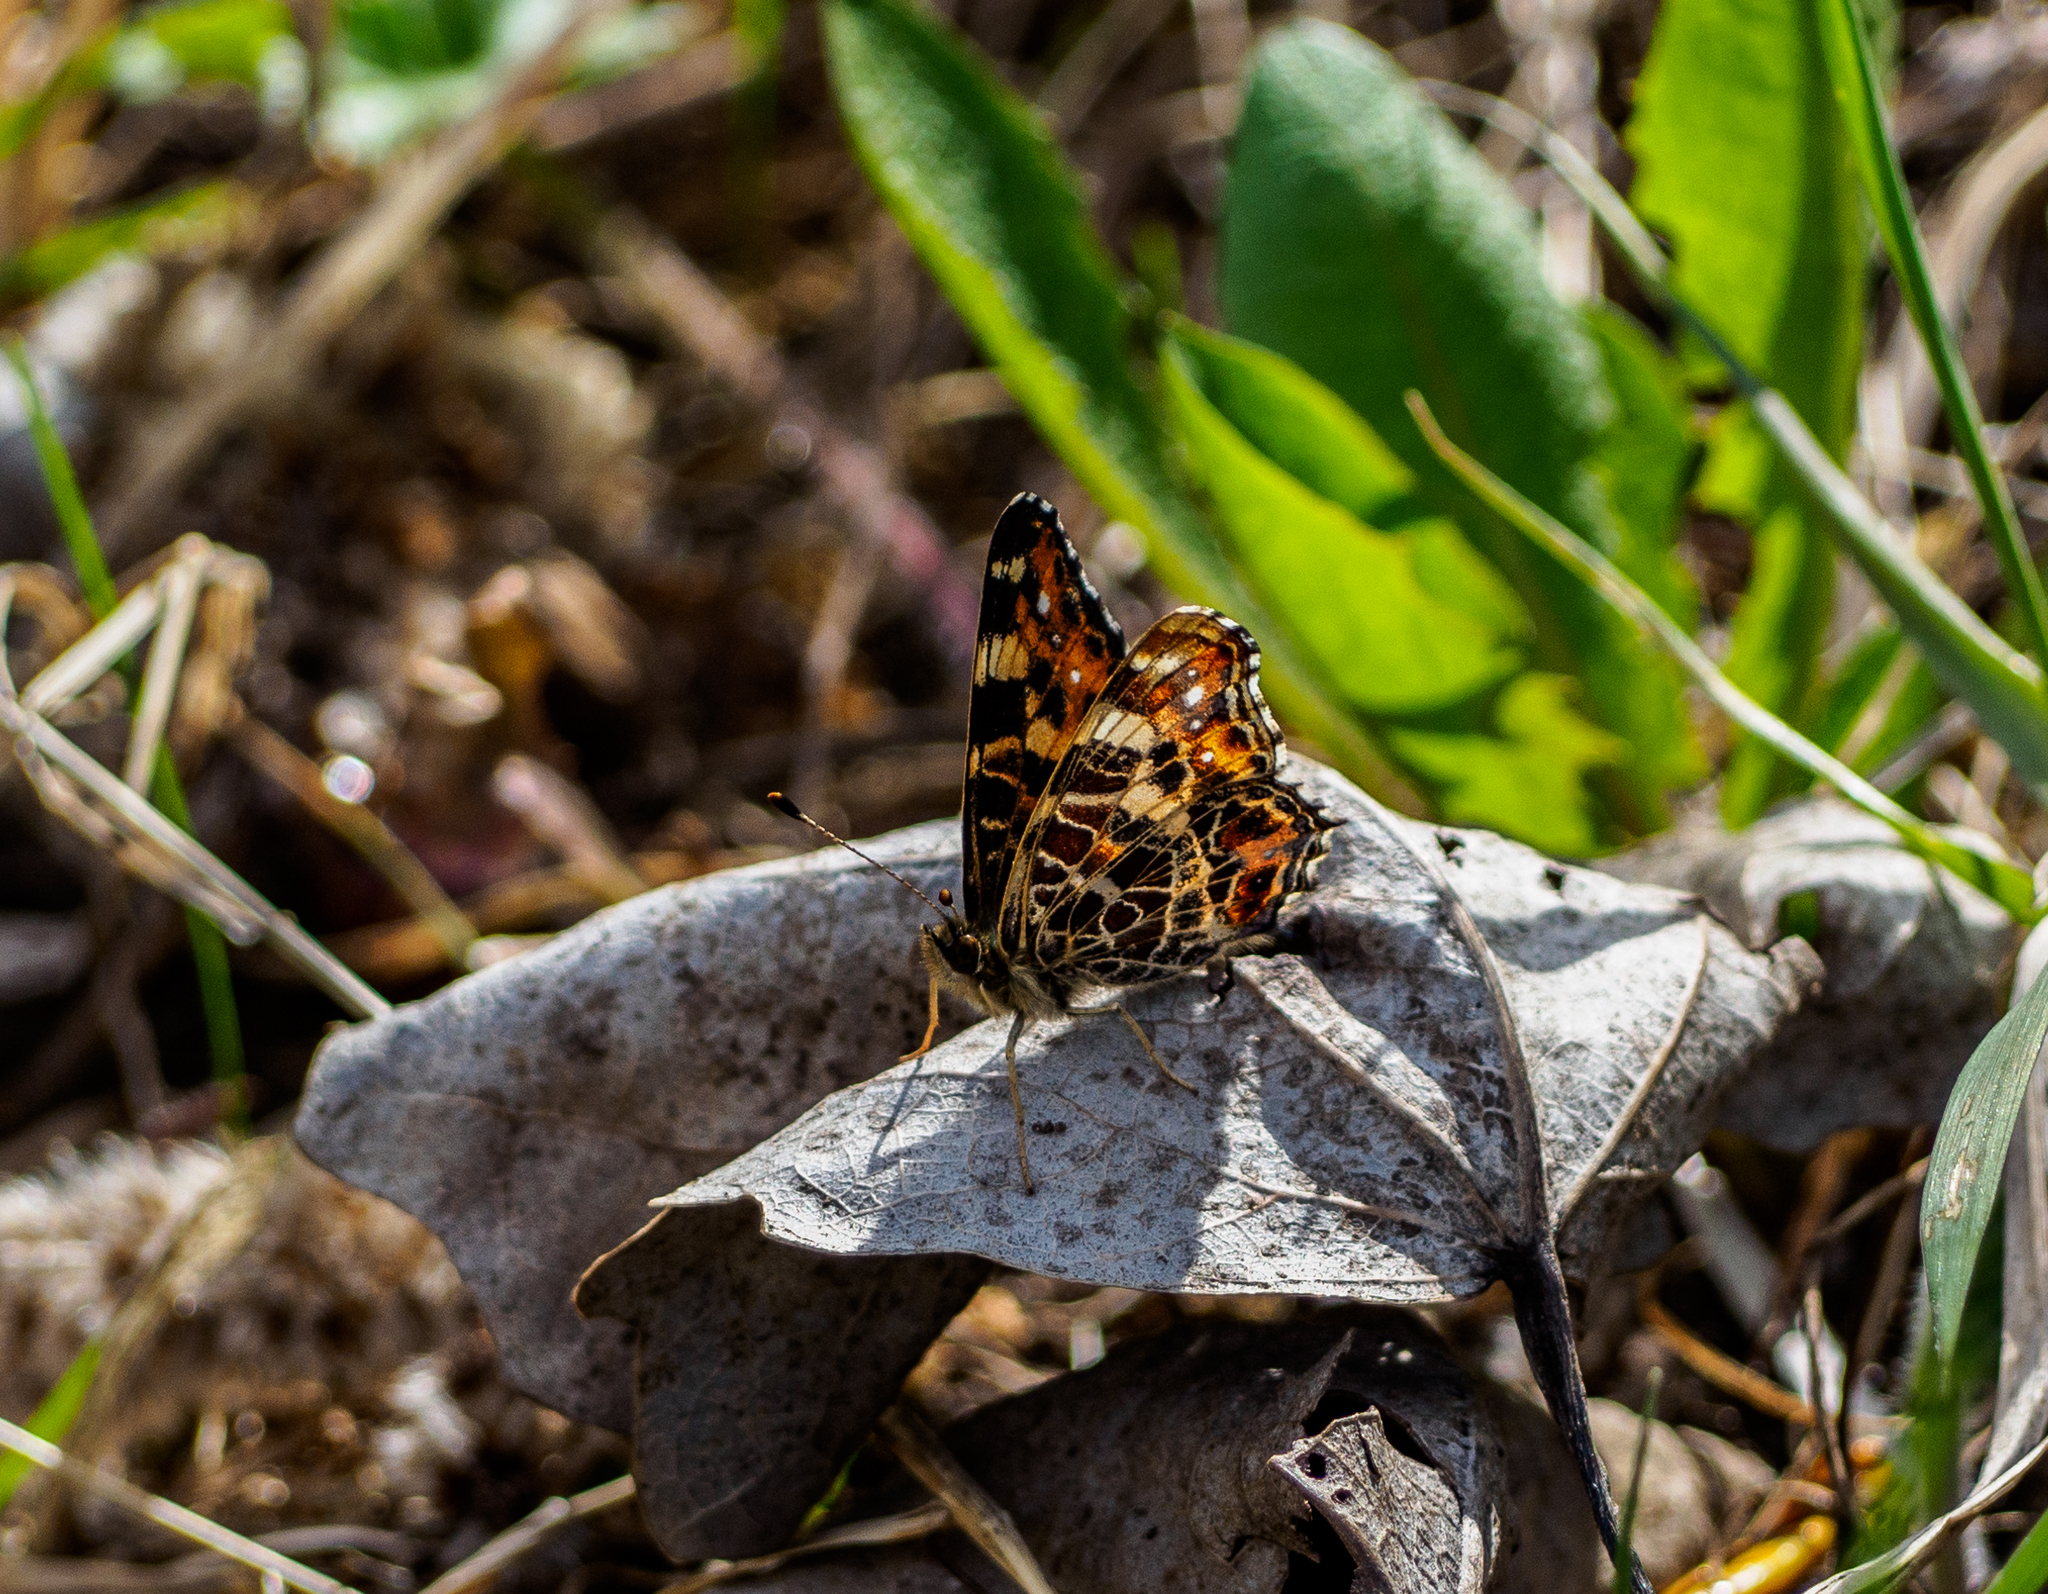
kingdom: Animalia
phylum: Arthropoda
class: Insecta
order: Lepidoptera
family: Nymphalidae
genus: Araschnia
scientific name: Araschnia levana
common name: Map butterfly
